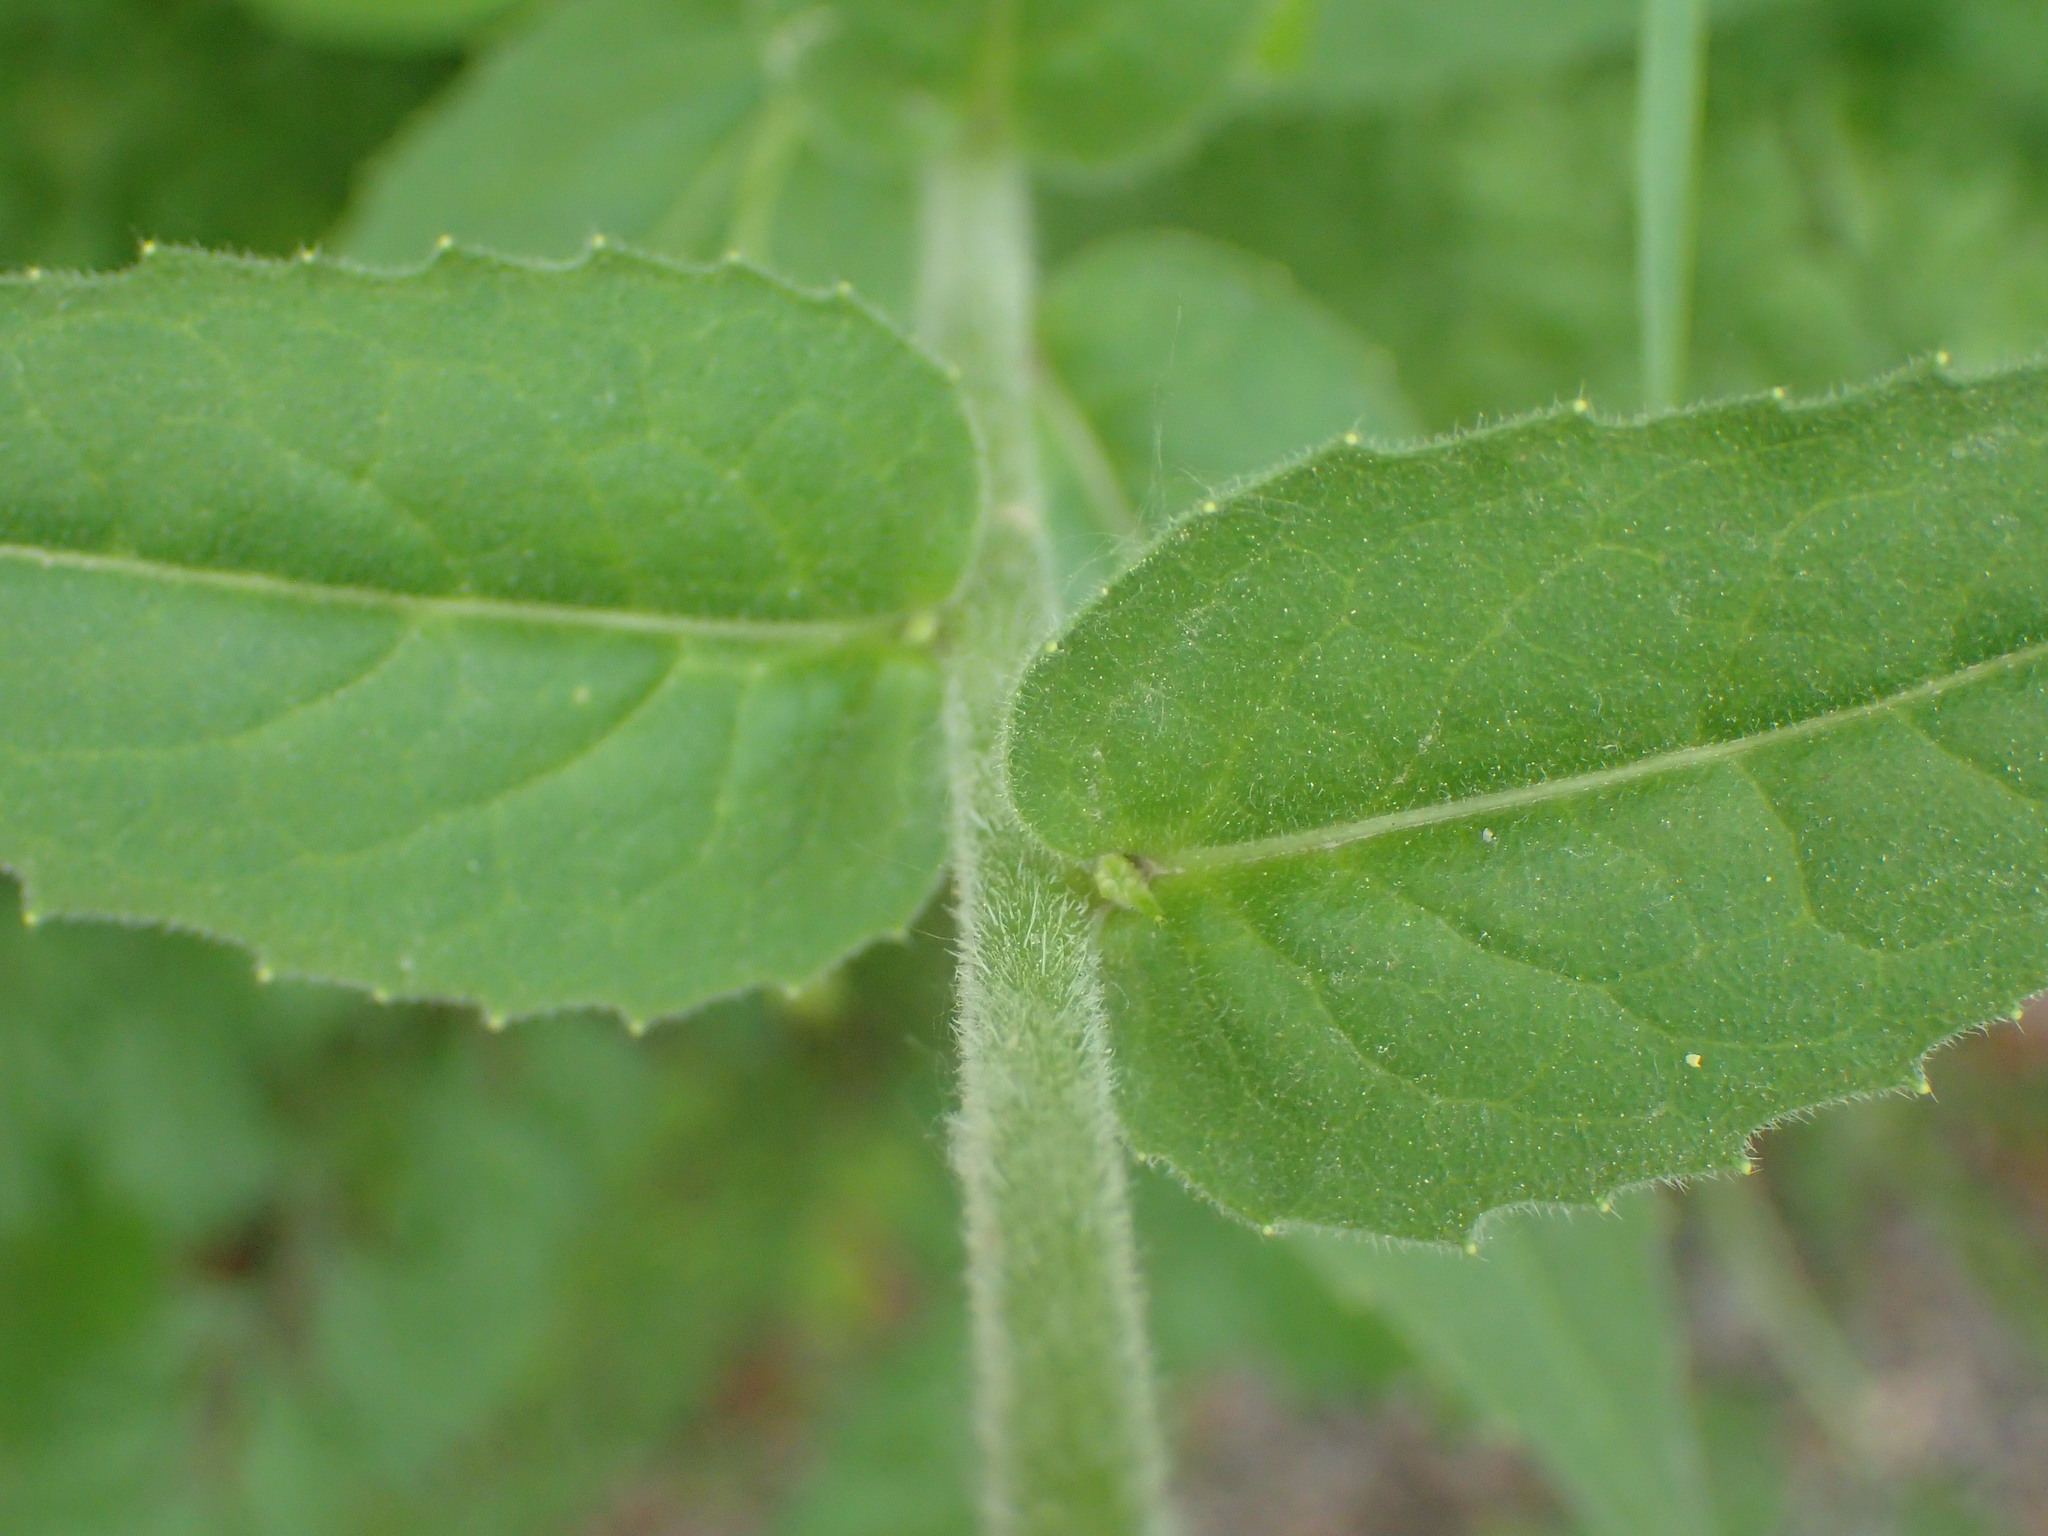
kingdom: Plantae
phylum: Tracheophyta
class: Magnoliopsida
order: Brassicales
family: Brassicaceae
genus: Hesperis
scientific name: Hesperis matronalis
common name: Dame's-violet
